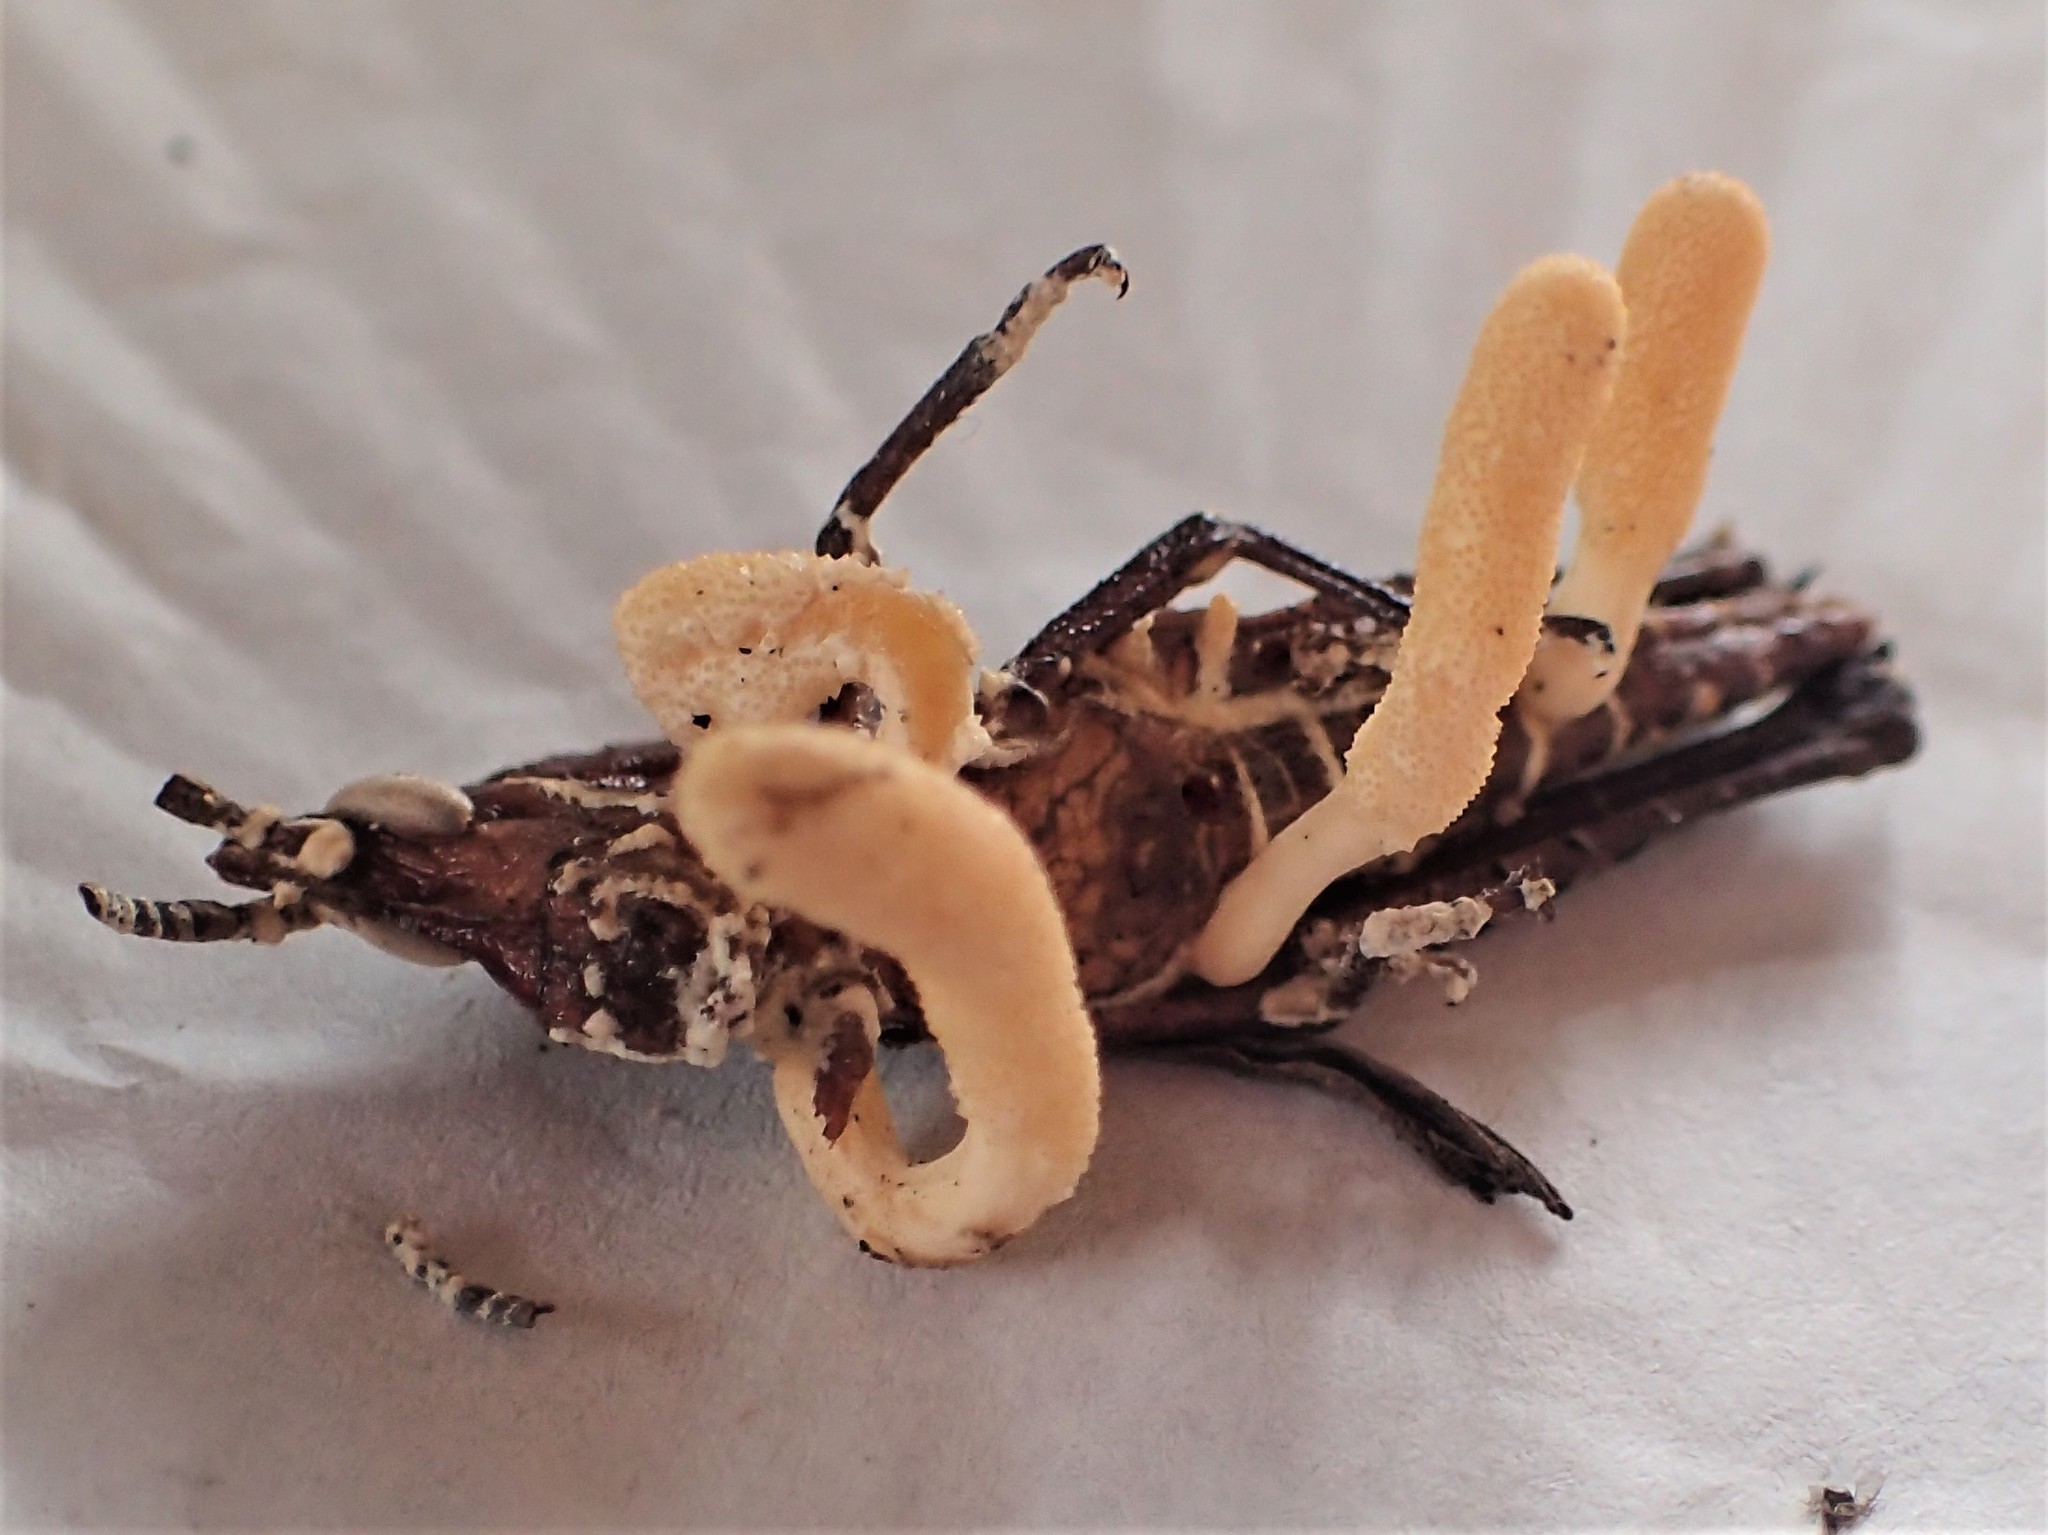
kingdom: Fungi
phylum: Ascomycota
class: Sordariomycetes
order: Hypocreales
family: Cordycipitaceae
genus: Beauveria
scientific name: Beauveria locustiphila
